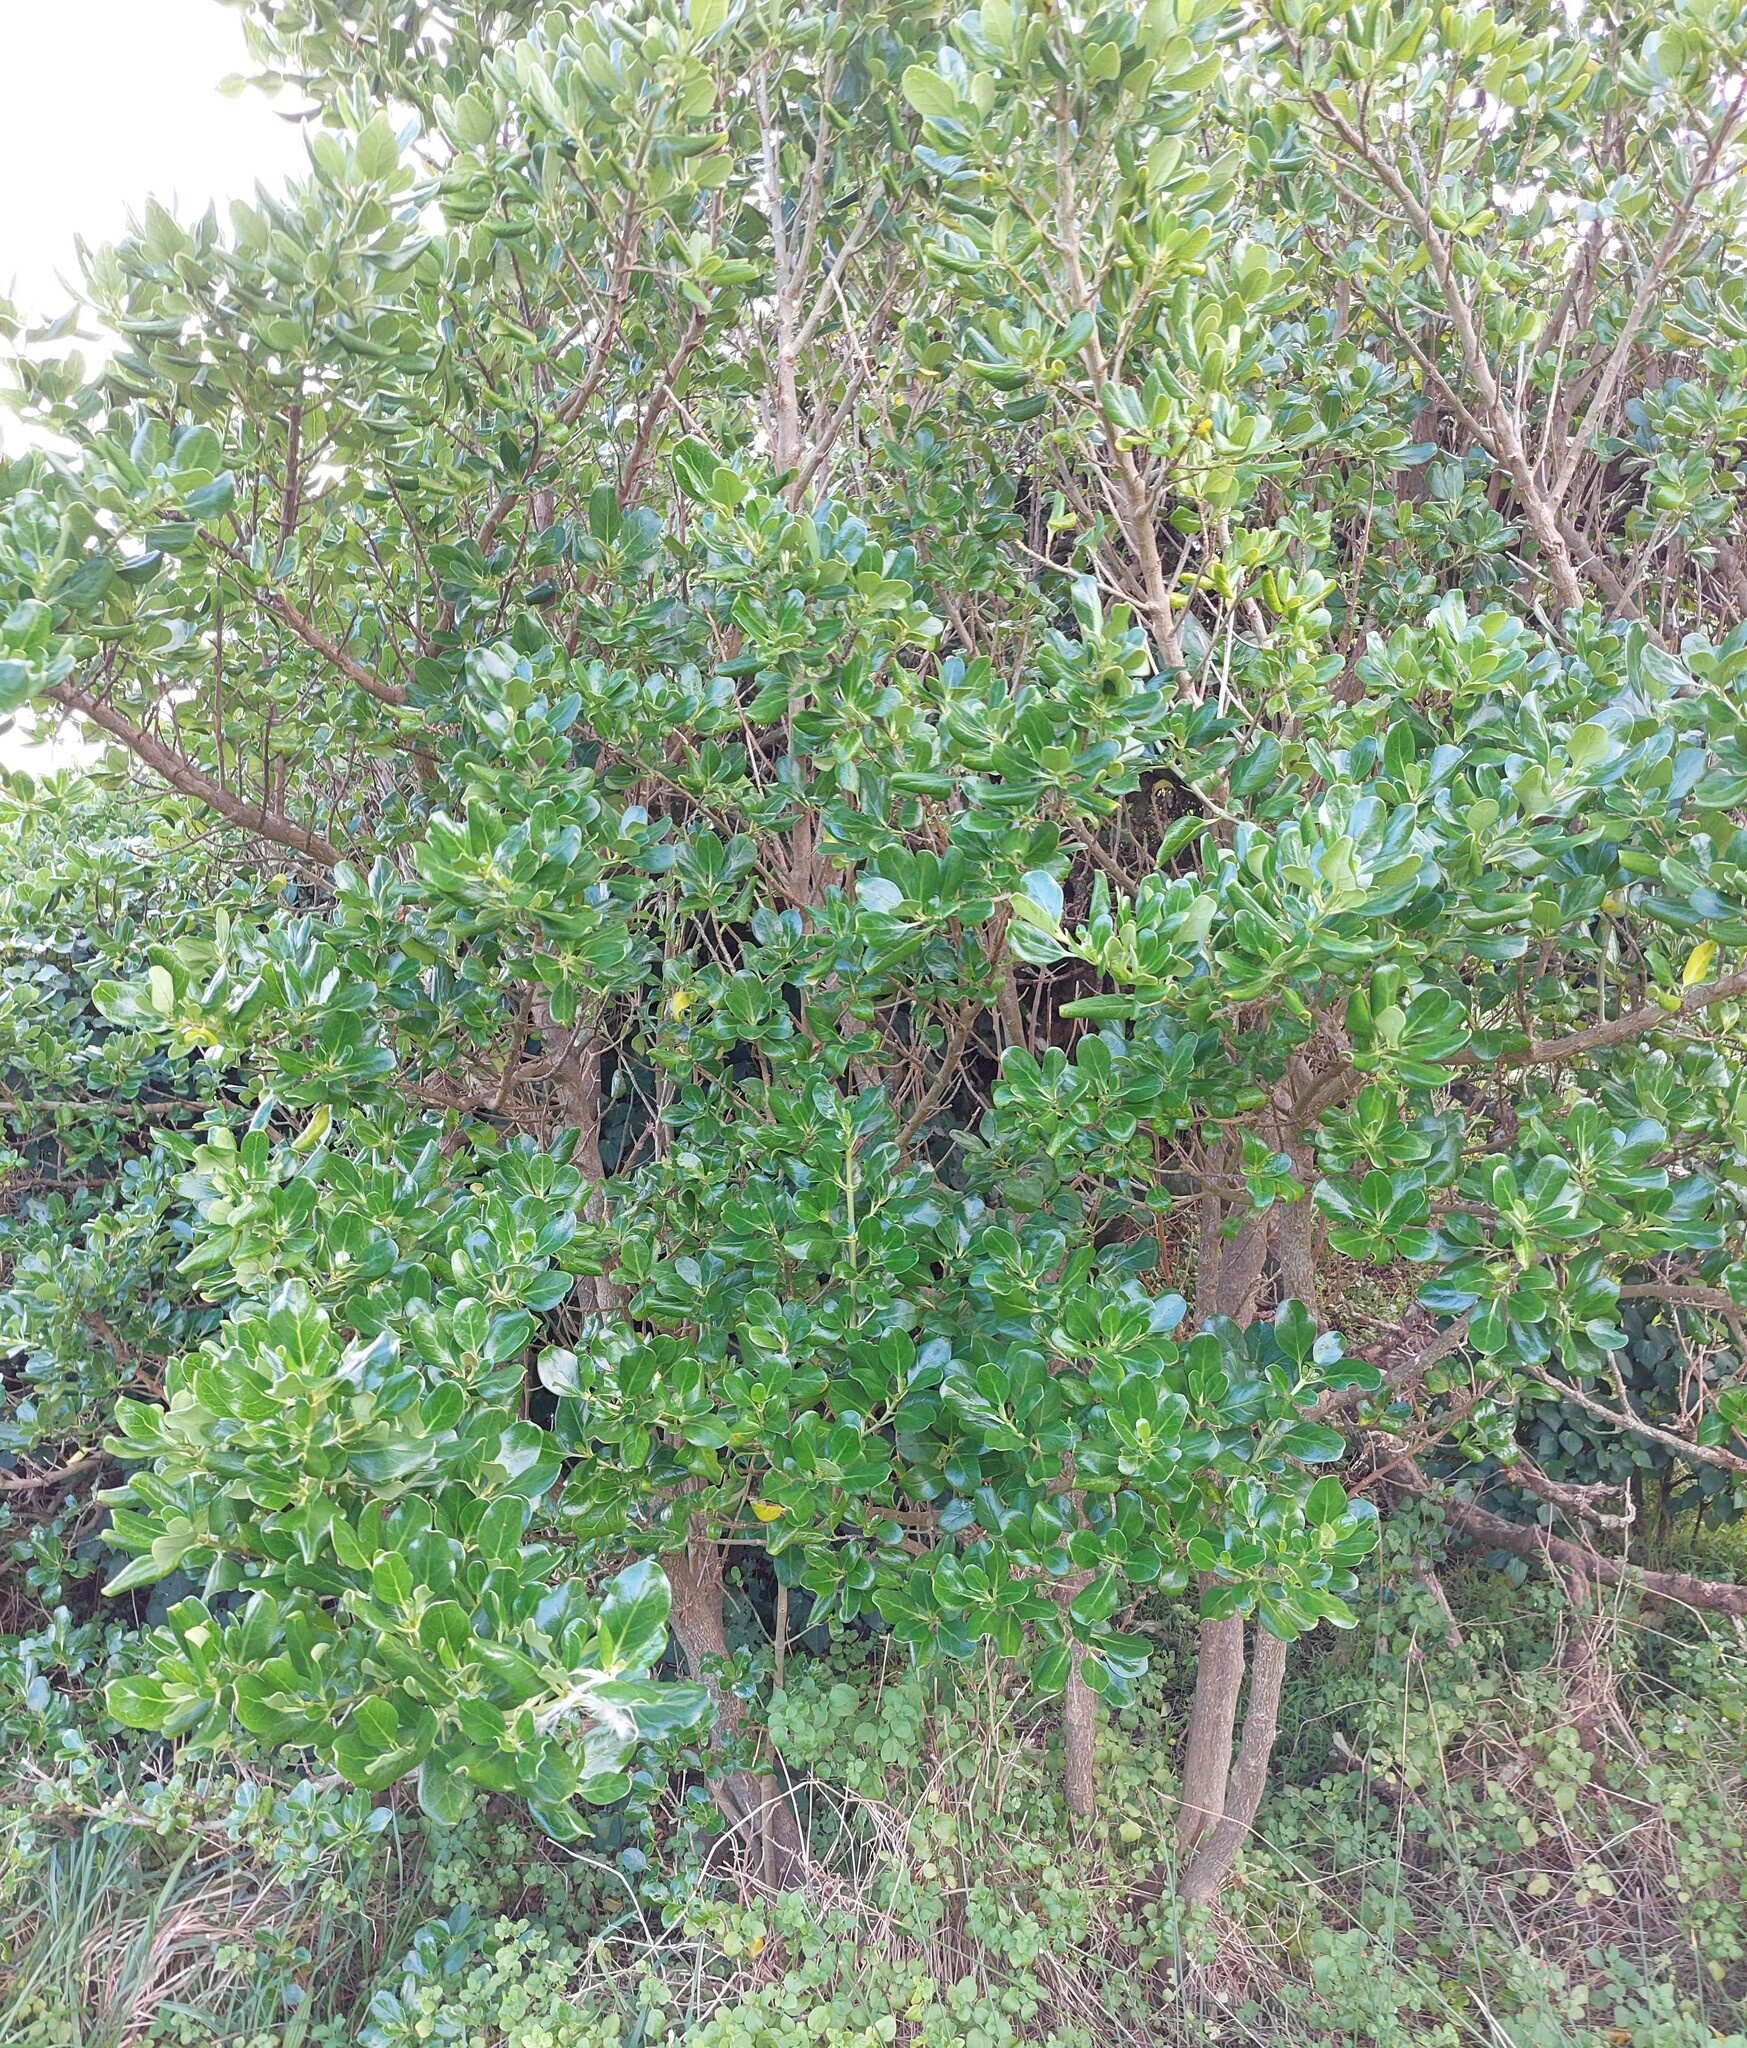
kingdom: Plantae
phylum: Tracheophyta
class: Magnoliopsida
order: Gentianales
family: Rubiaceae
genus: Coprosma
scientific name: Coprosma repens
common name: Tree bedstraw
